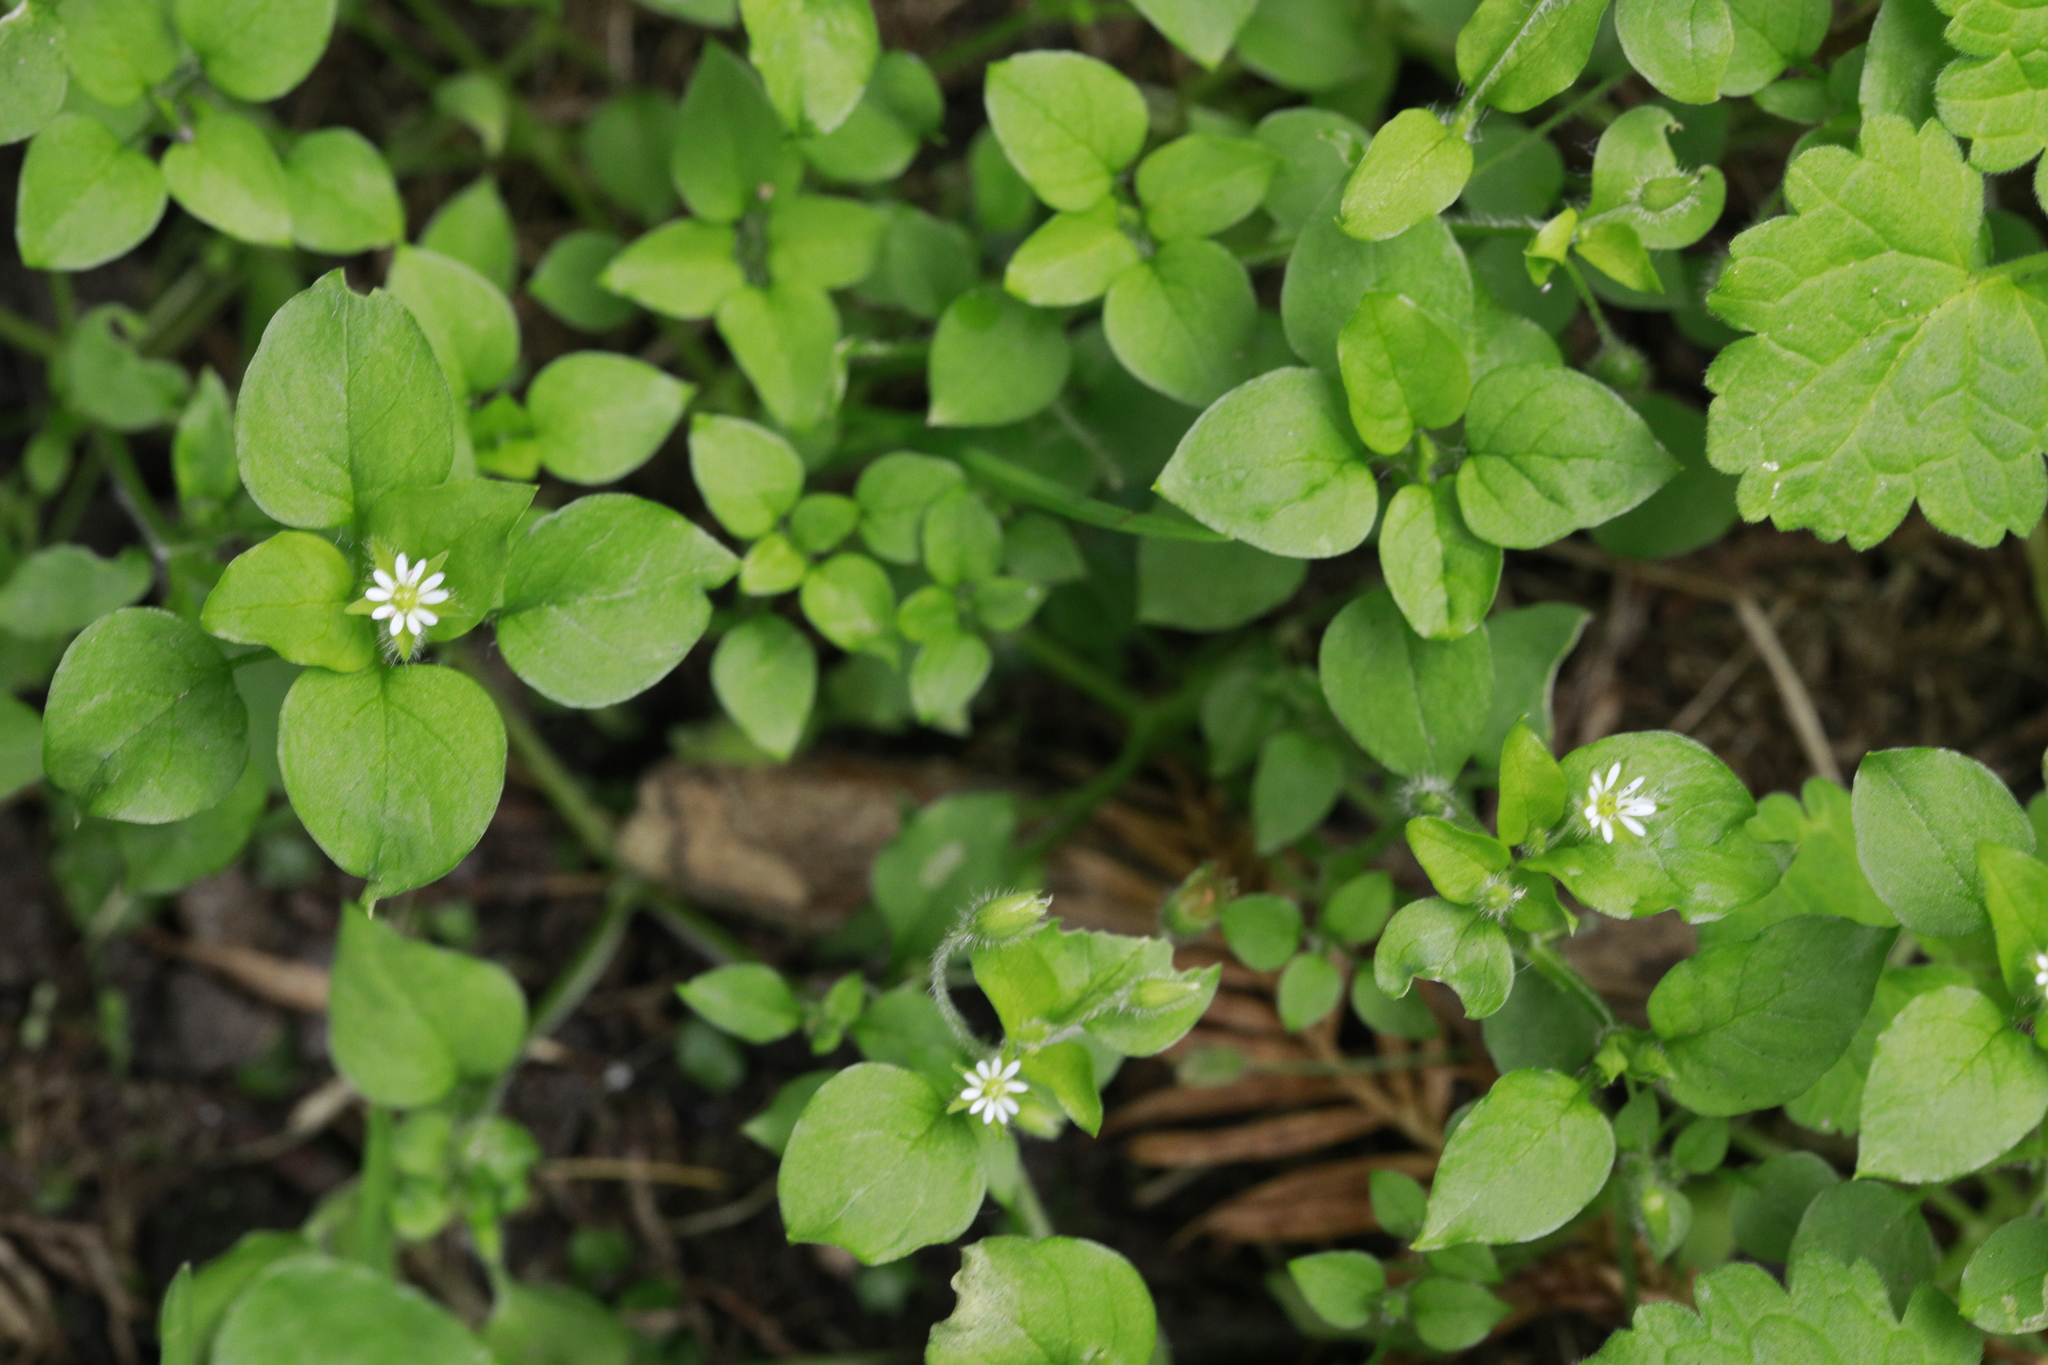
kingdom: Plantae
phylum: Tracheophyta
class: Magnoliopsida
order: Caryophyllales
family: Caryophyllaceae
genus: Stellaria
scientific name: Stellaria media
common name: Common chickweed
